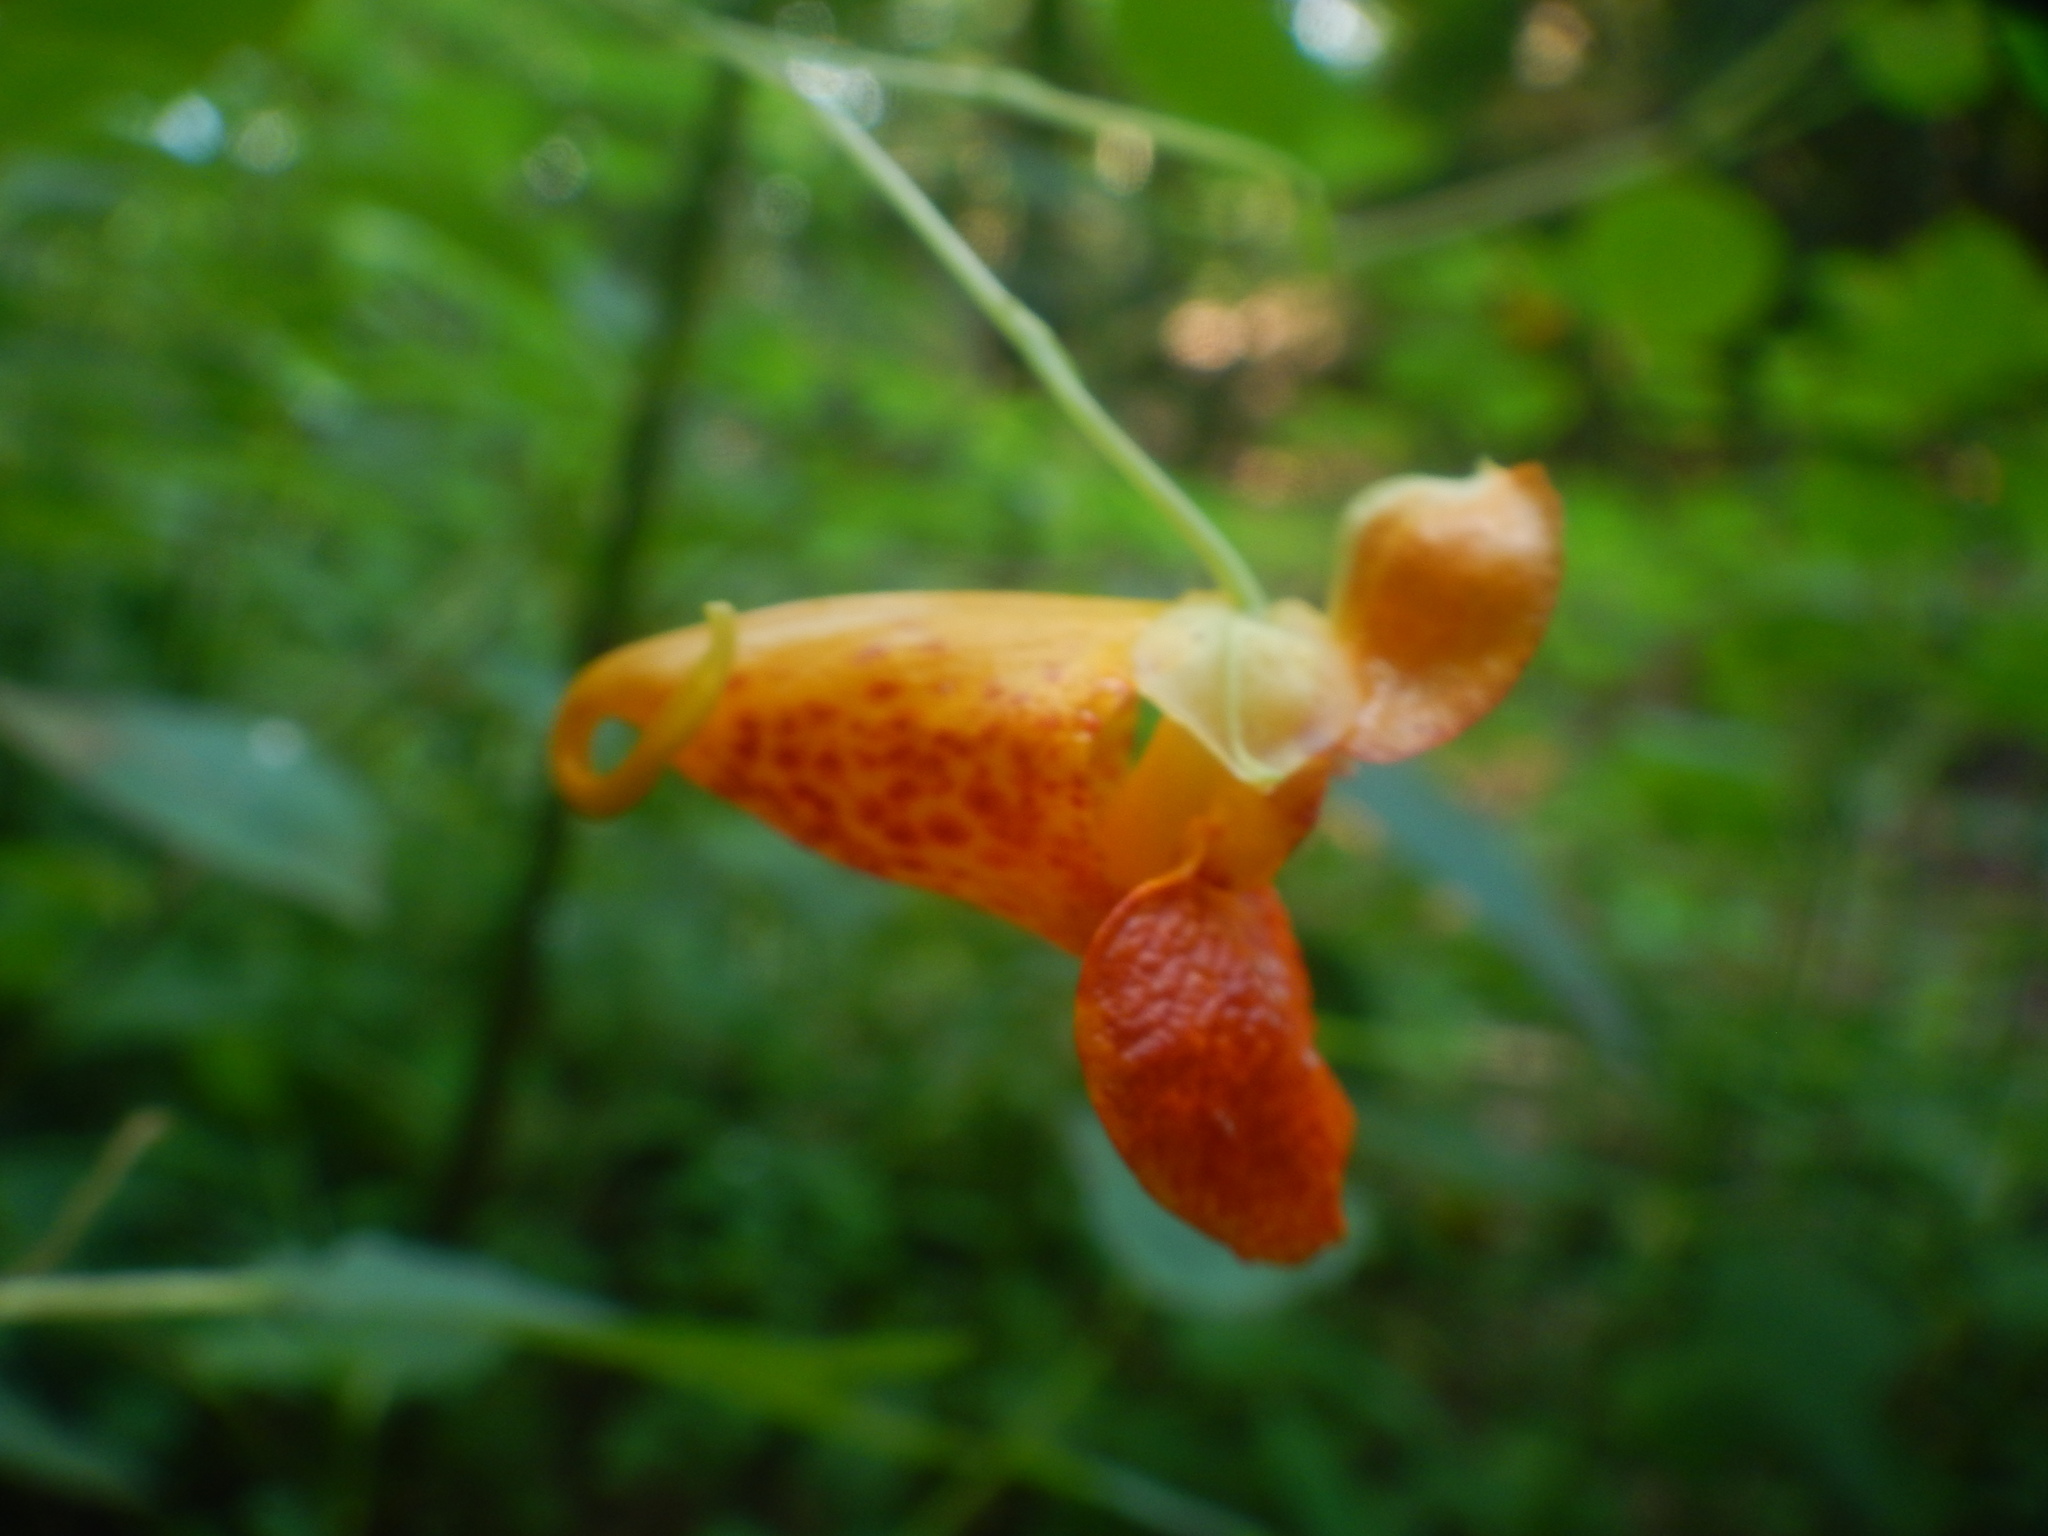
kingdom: Plantae
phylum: Tracheophyta
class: Magnoliopsida
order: Ericales
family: Balsaminaceae
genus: Impatiens
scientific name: Impatiens capensis
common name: Orange balsam
